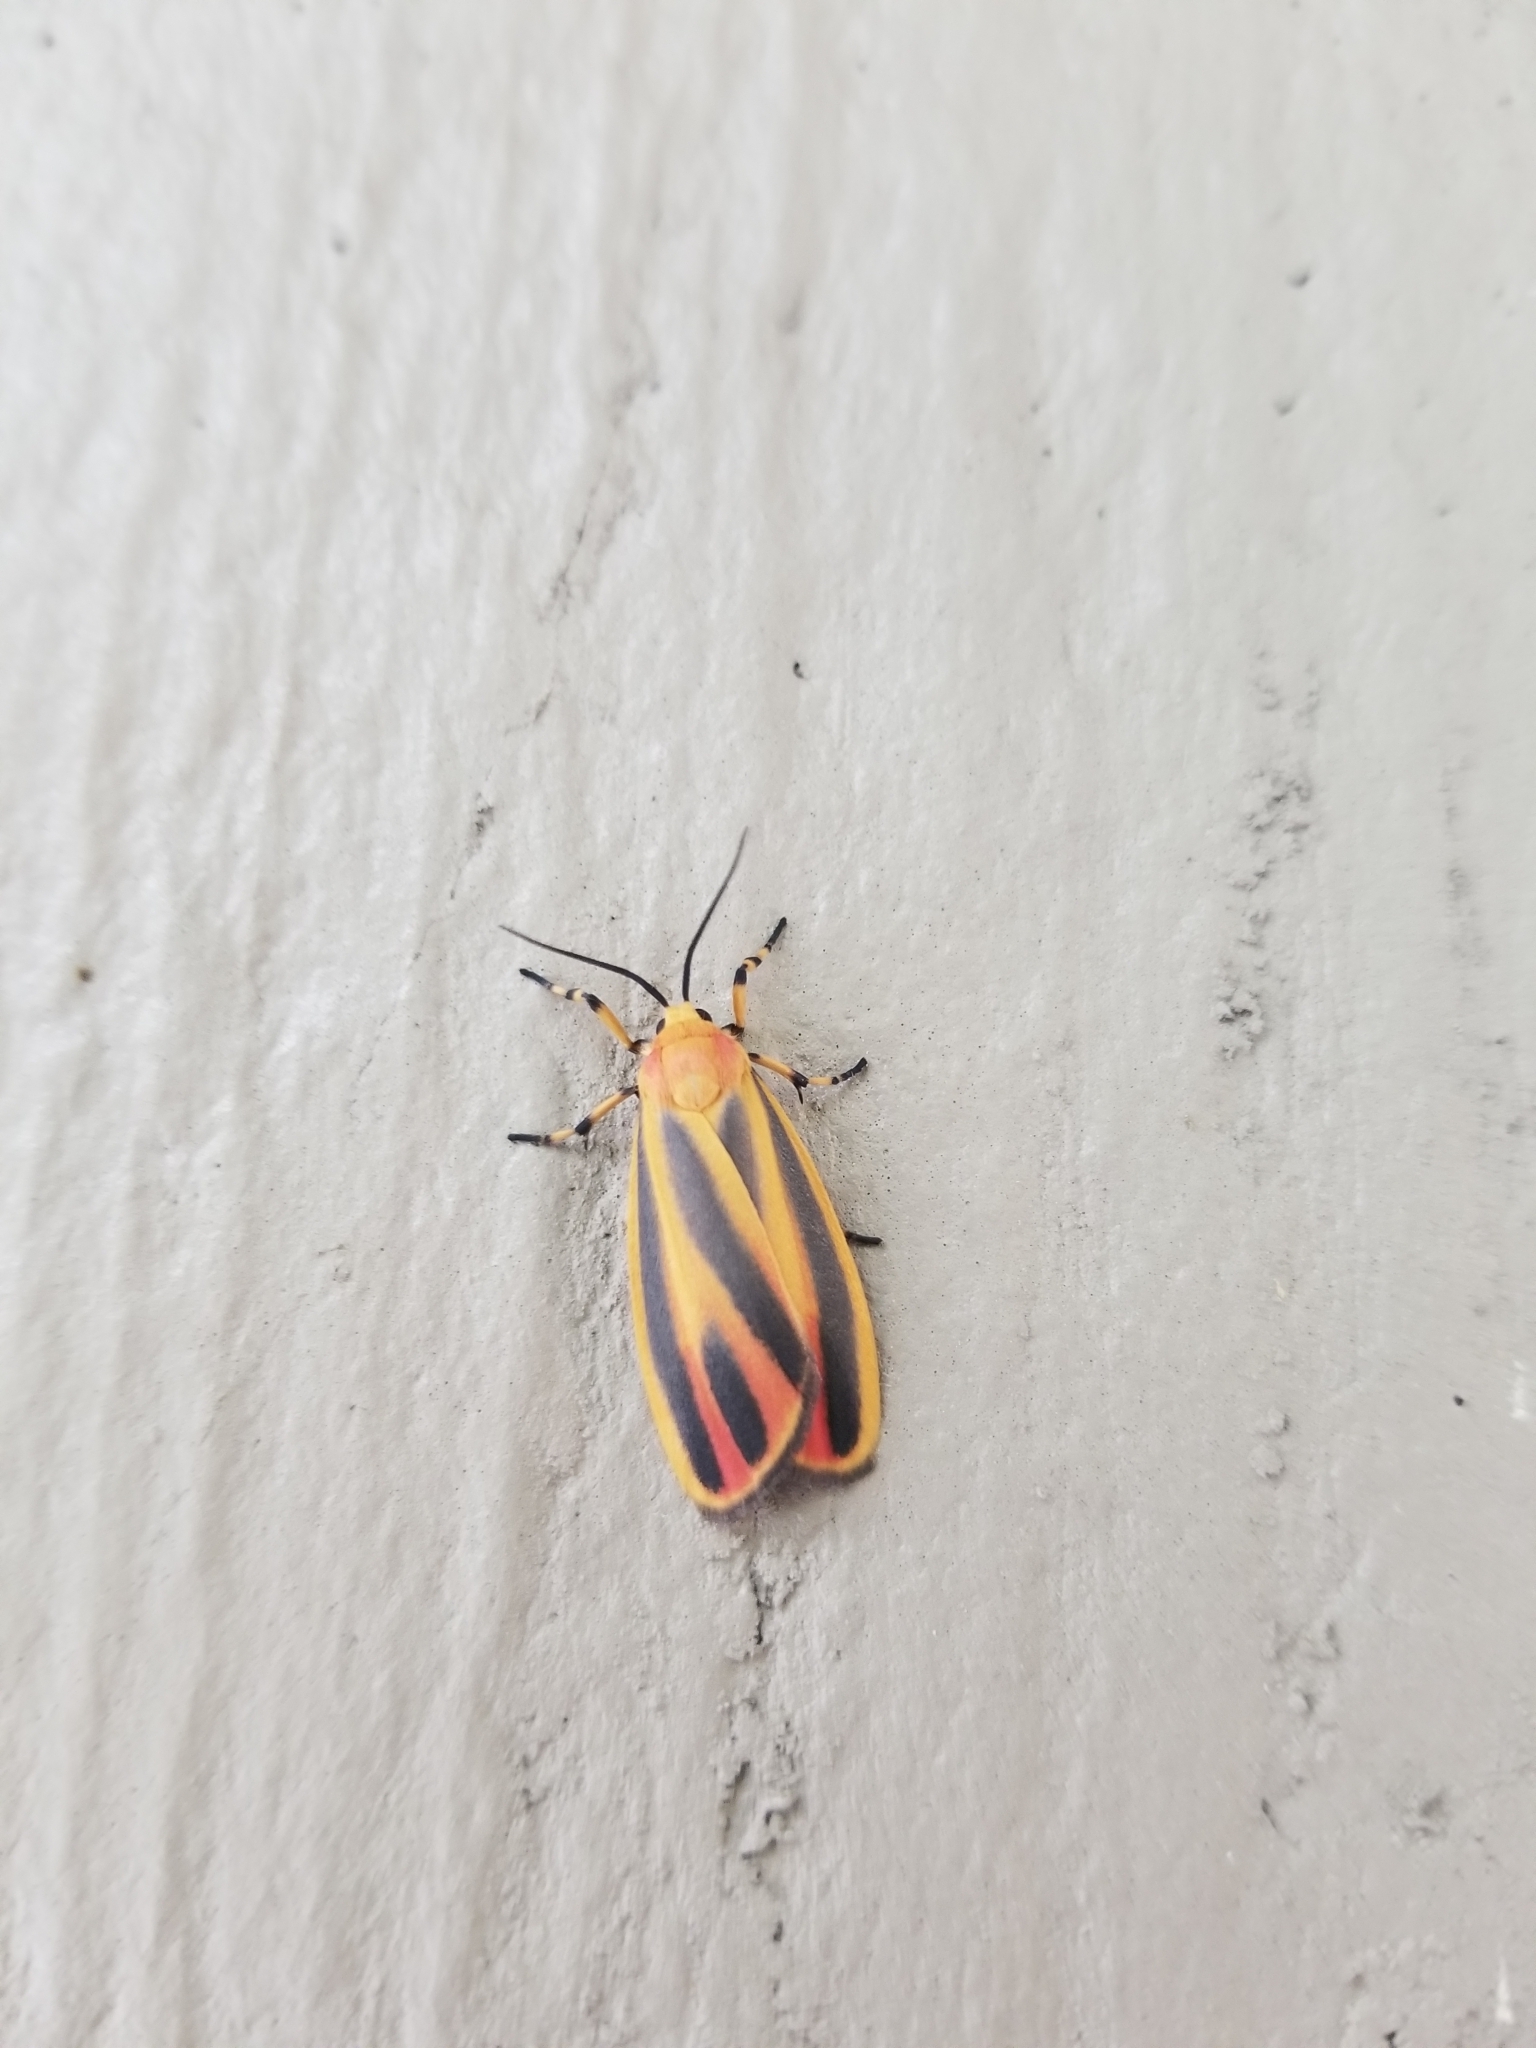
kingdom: Animalia
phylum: Arthropoda
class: Insecta
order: Lepidoptera
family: Erebidae
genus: Hypoprepia
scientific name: Hypoprepia fucosa
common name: Painted lichen moth
